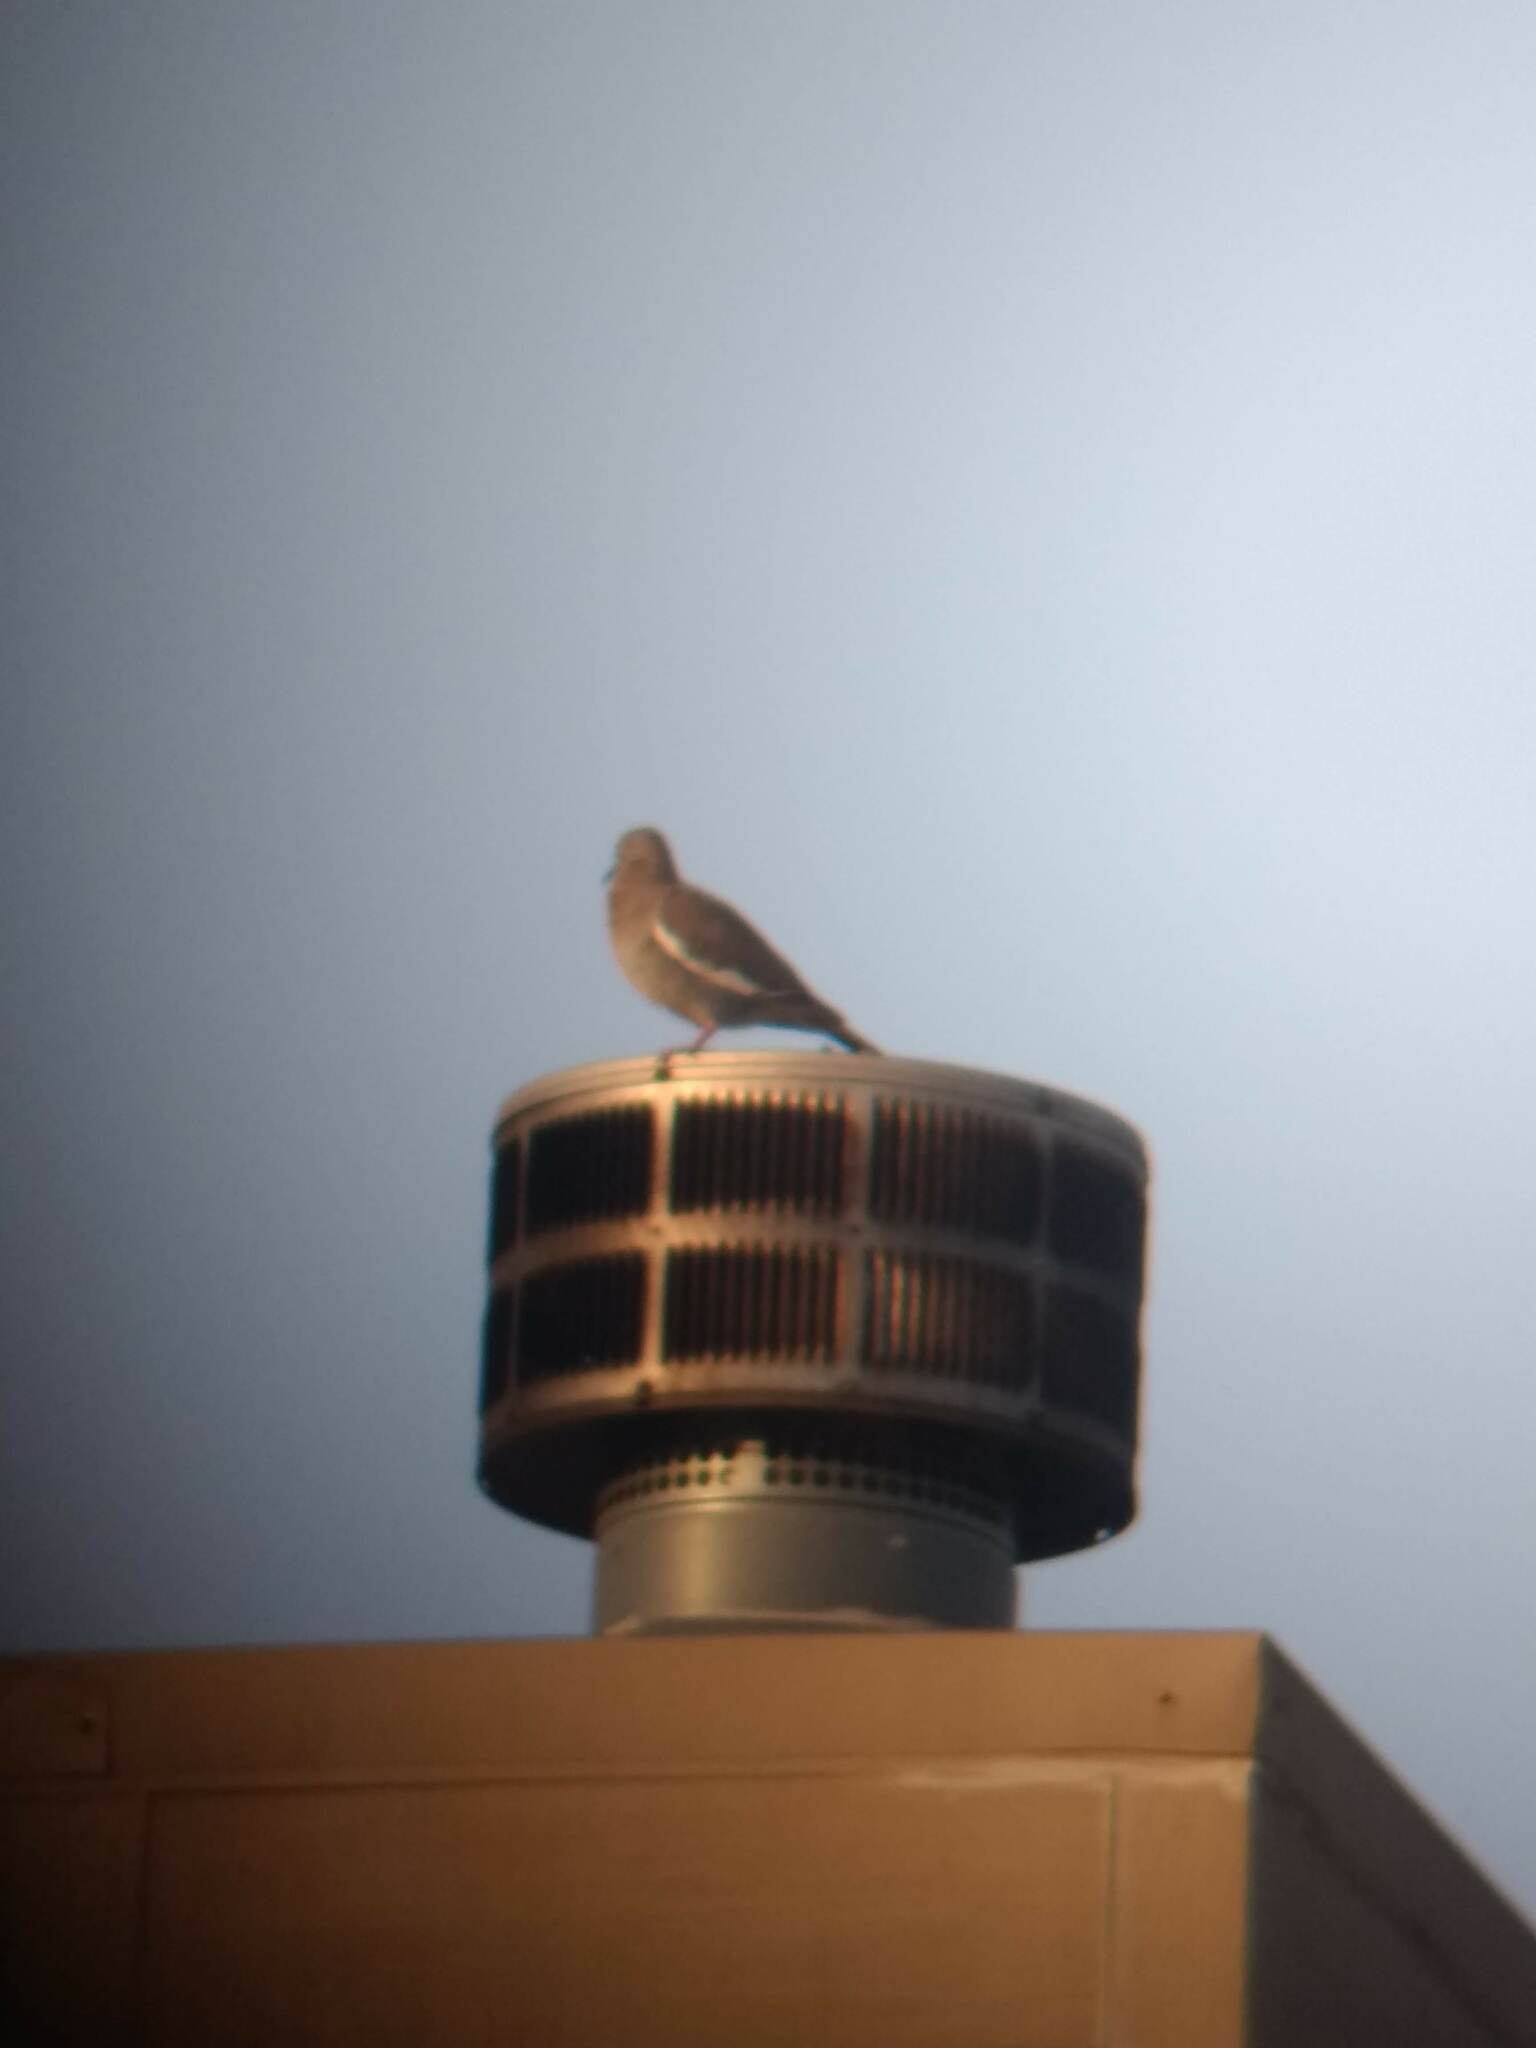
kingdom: Animalia
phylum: Chordata
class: Aves
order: Columbiformes
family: Columbidae
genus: Zenaida
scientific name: Zenaida asiatica
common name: White-winged dove
